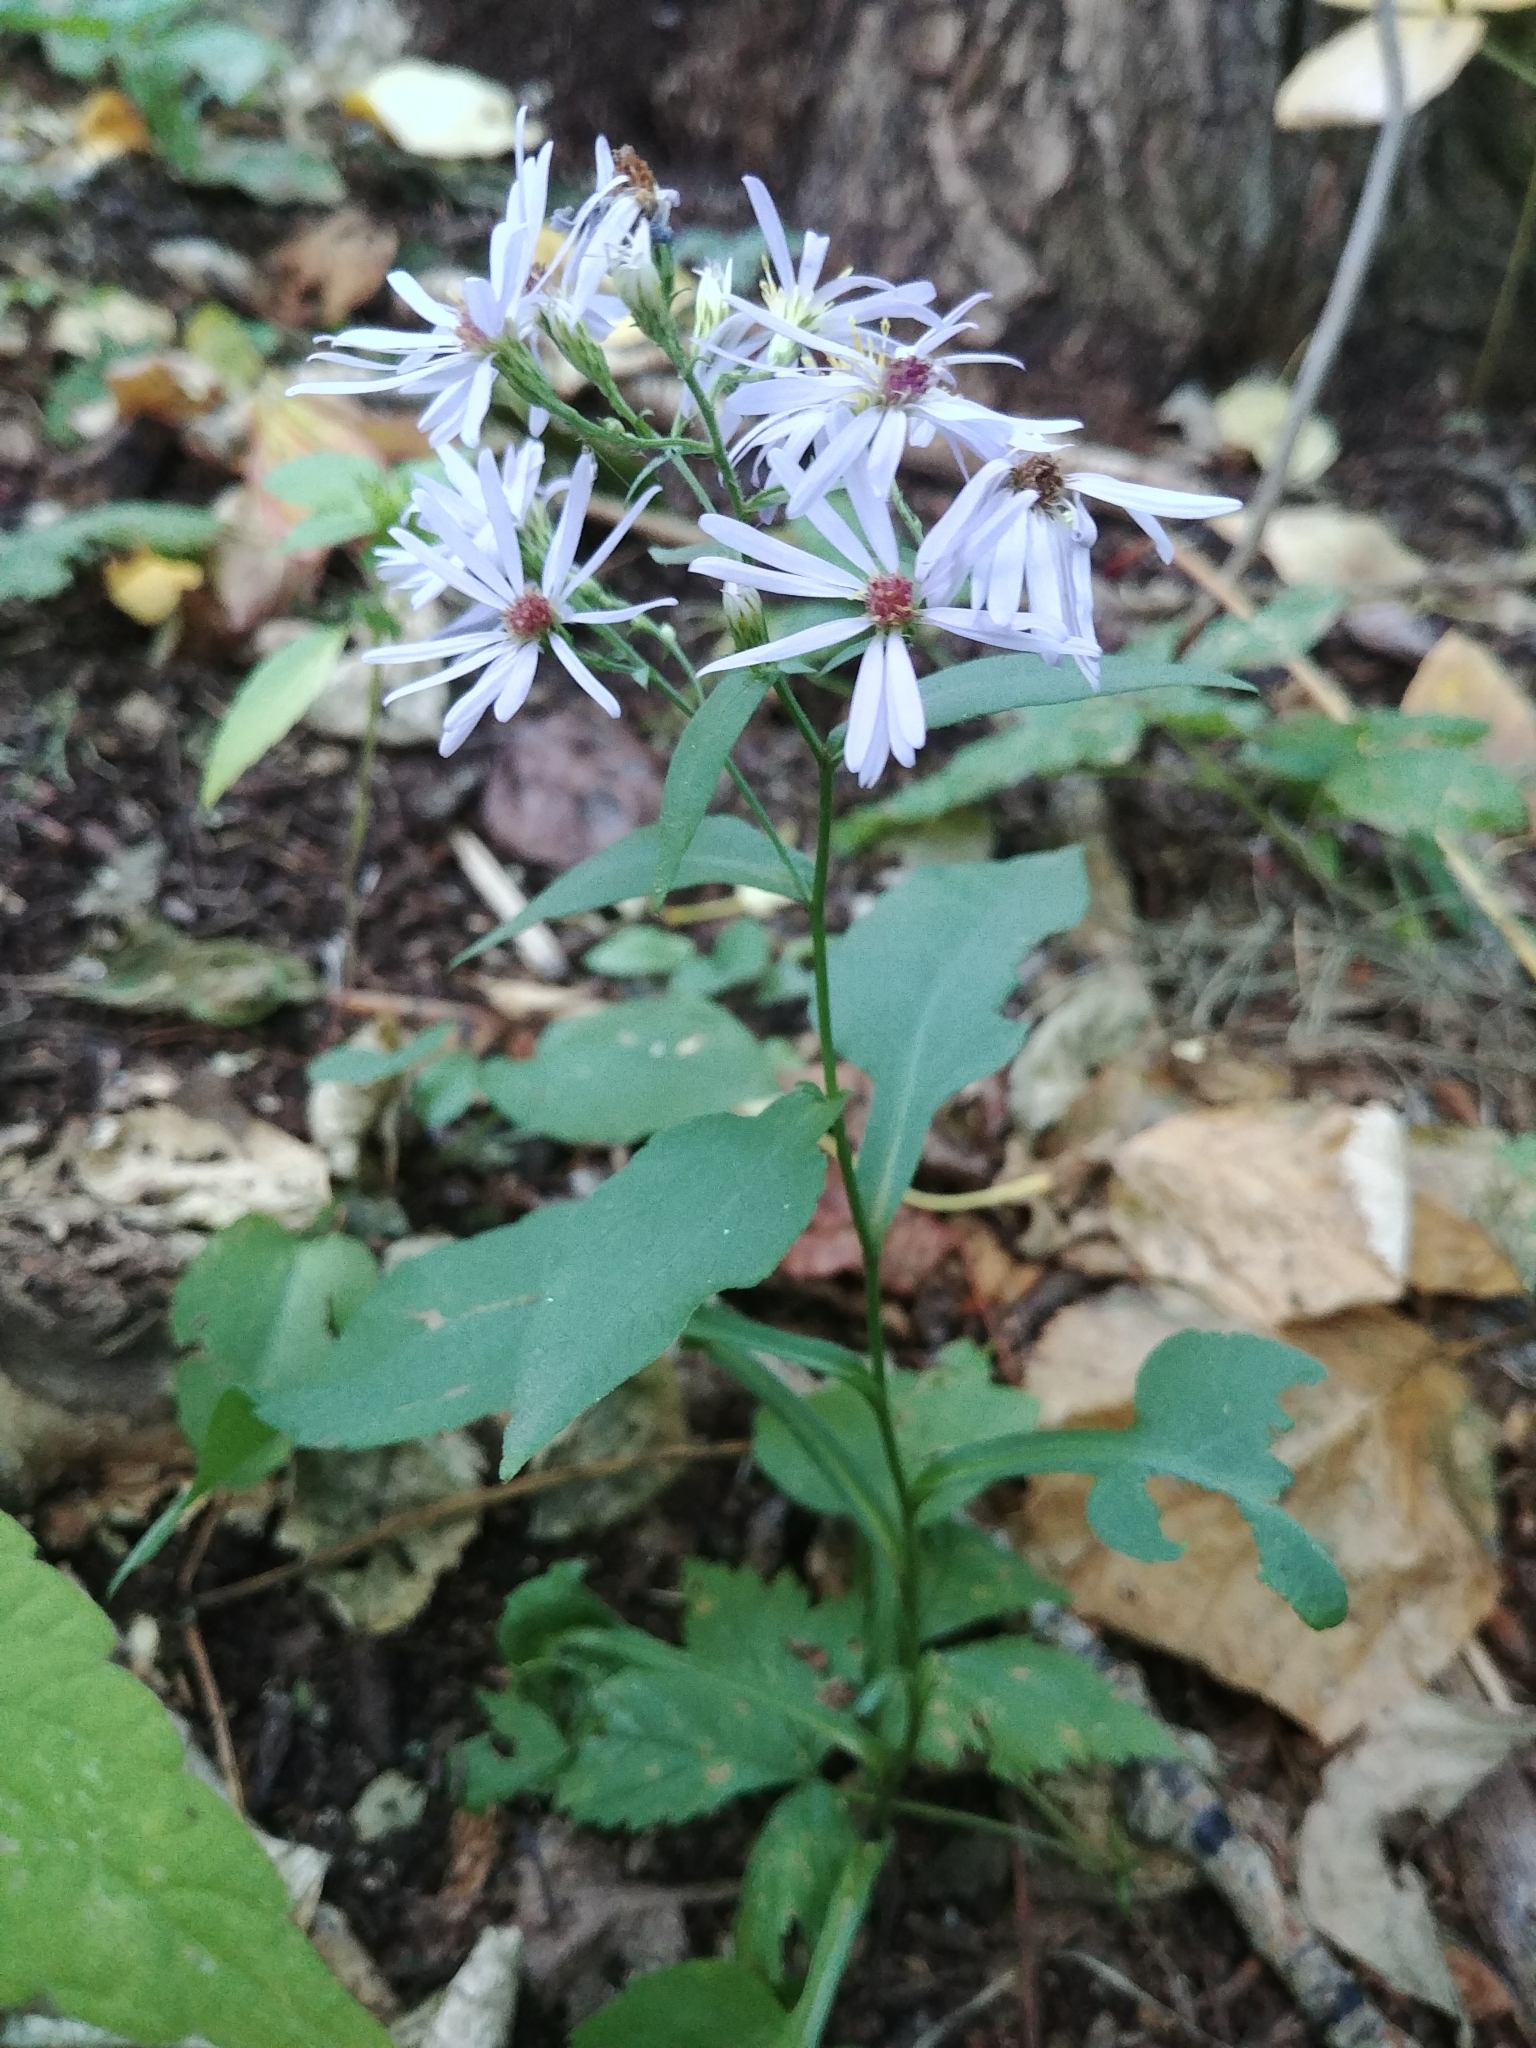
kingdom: Plantae
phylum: Tracheophyta
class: Magnoliopsida
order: Asterales
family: Asteraceae
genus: Symphyotrichum
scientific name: Symphyotrichum ciliolatum
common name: Fringed blue aster
